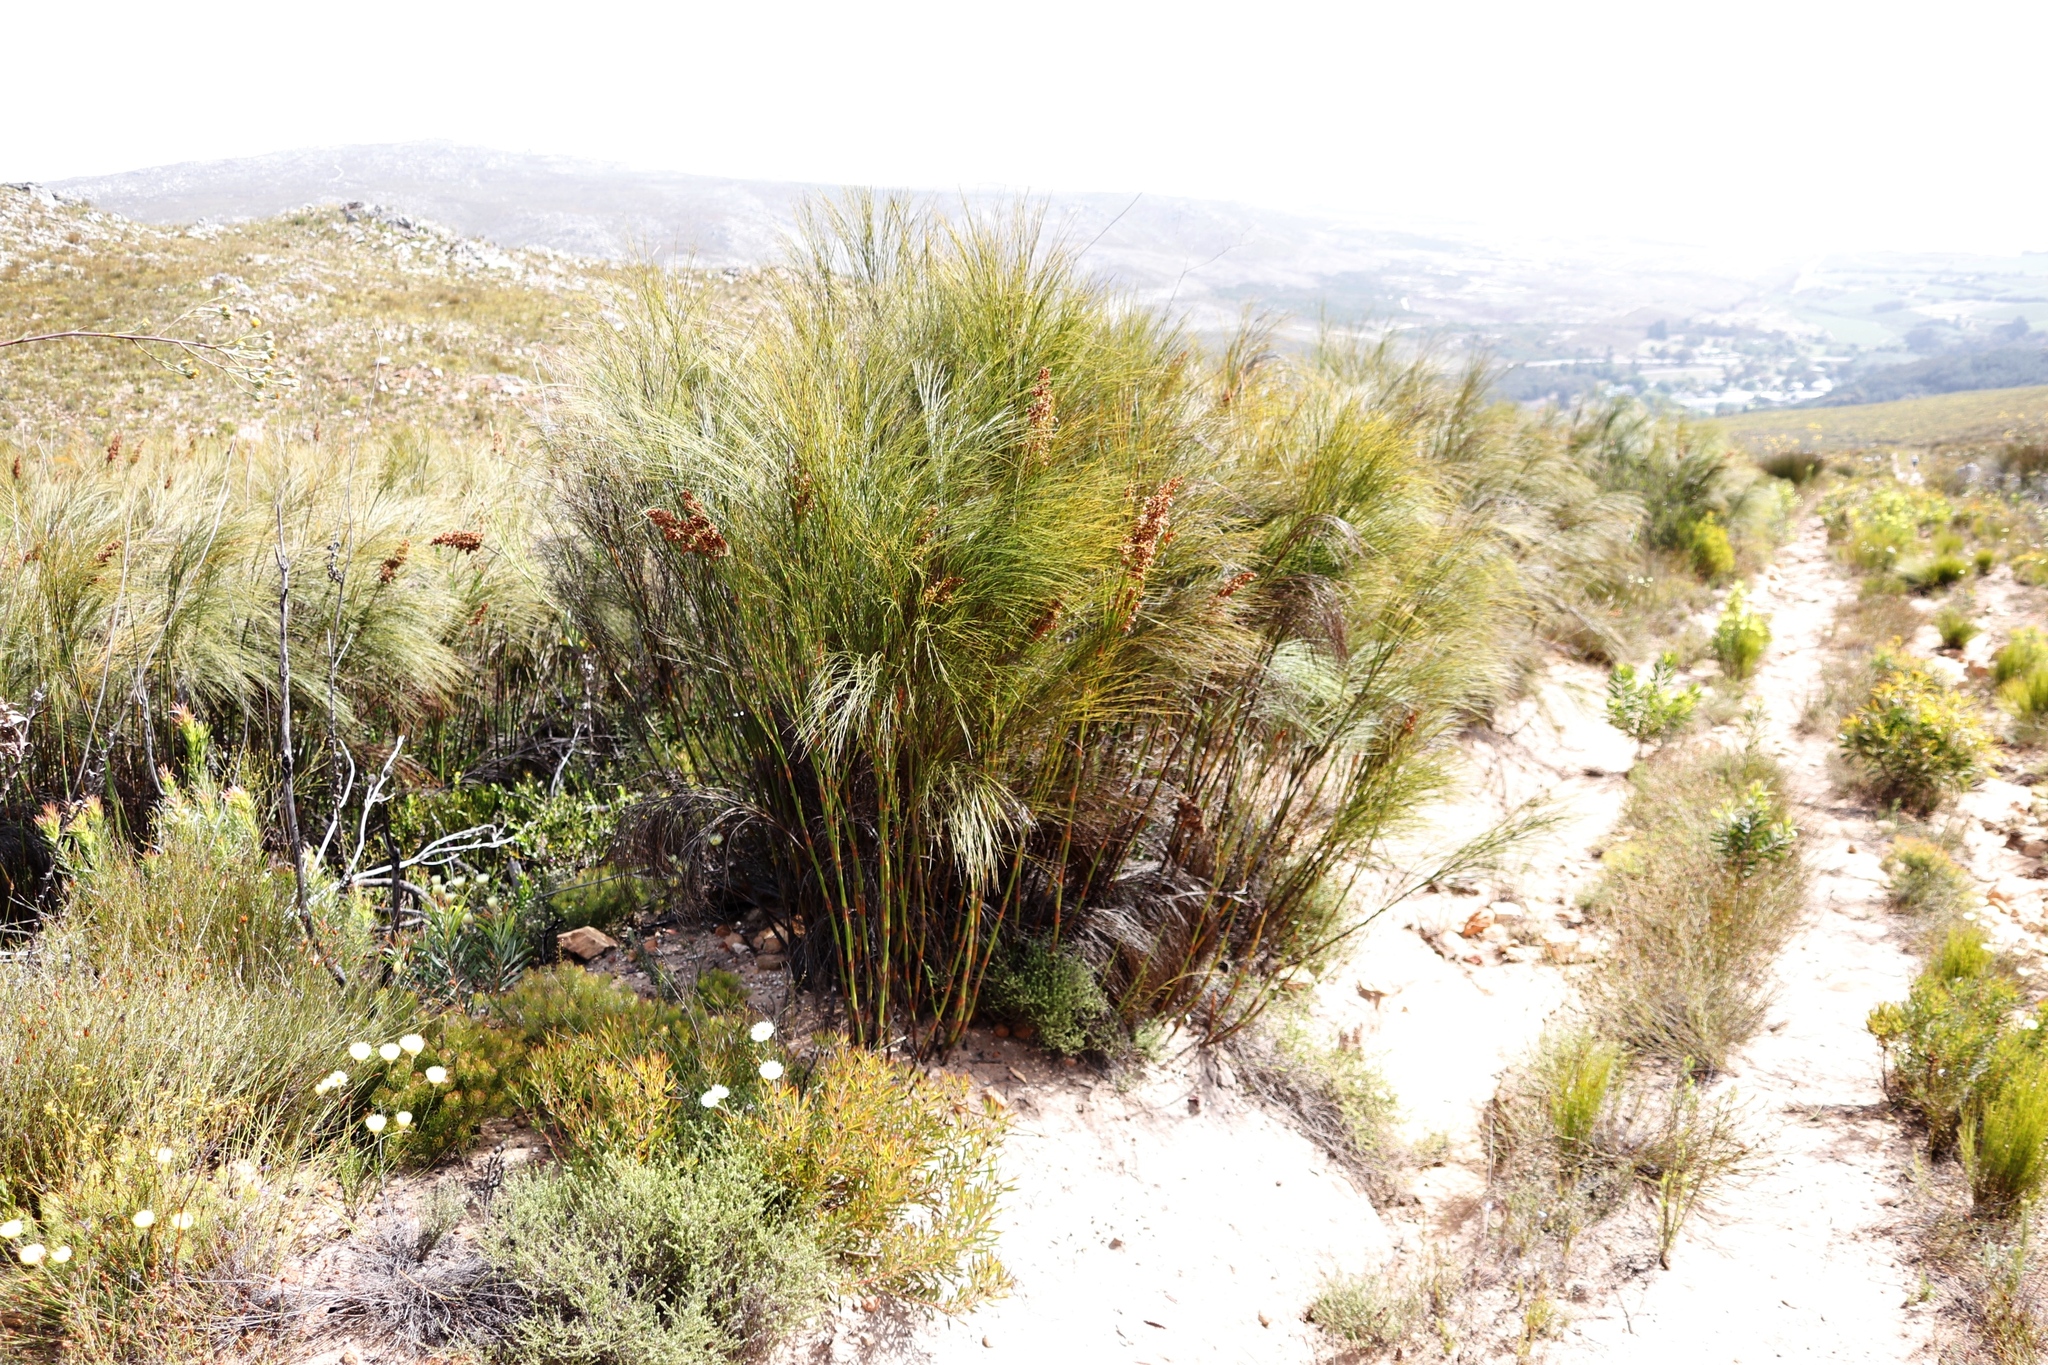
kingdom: Plantae
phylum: Tracheophyta
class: Liliopsida
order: Poales
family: Restionaceae
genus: Cannomois
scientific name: Cannomois virgata
